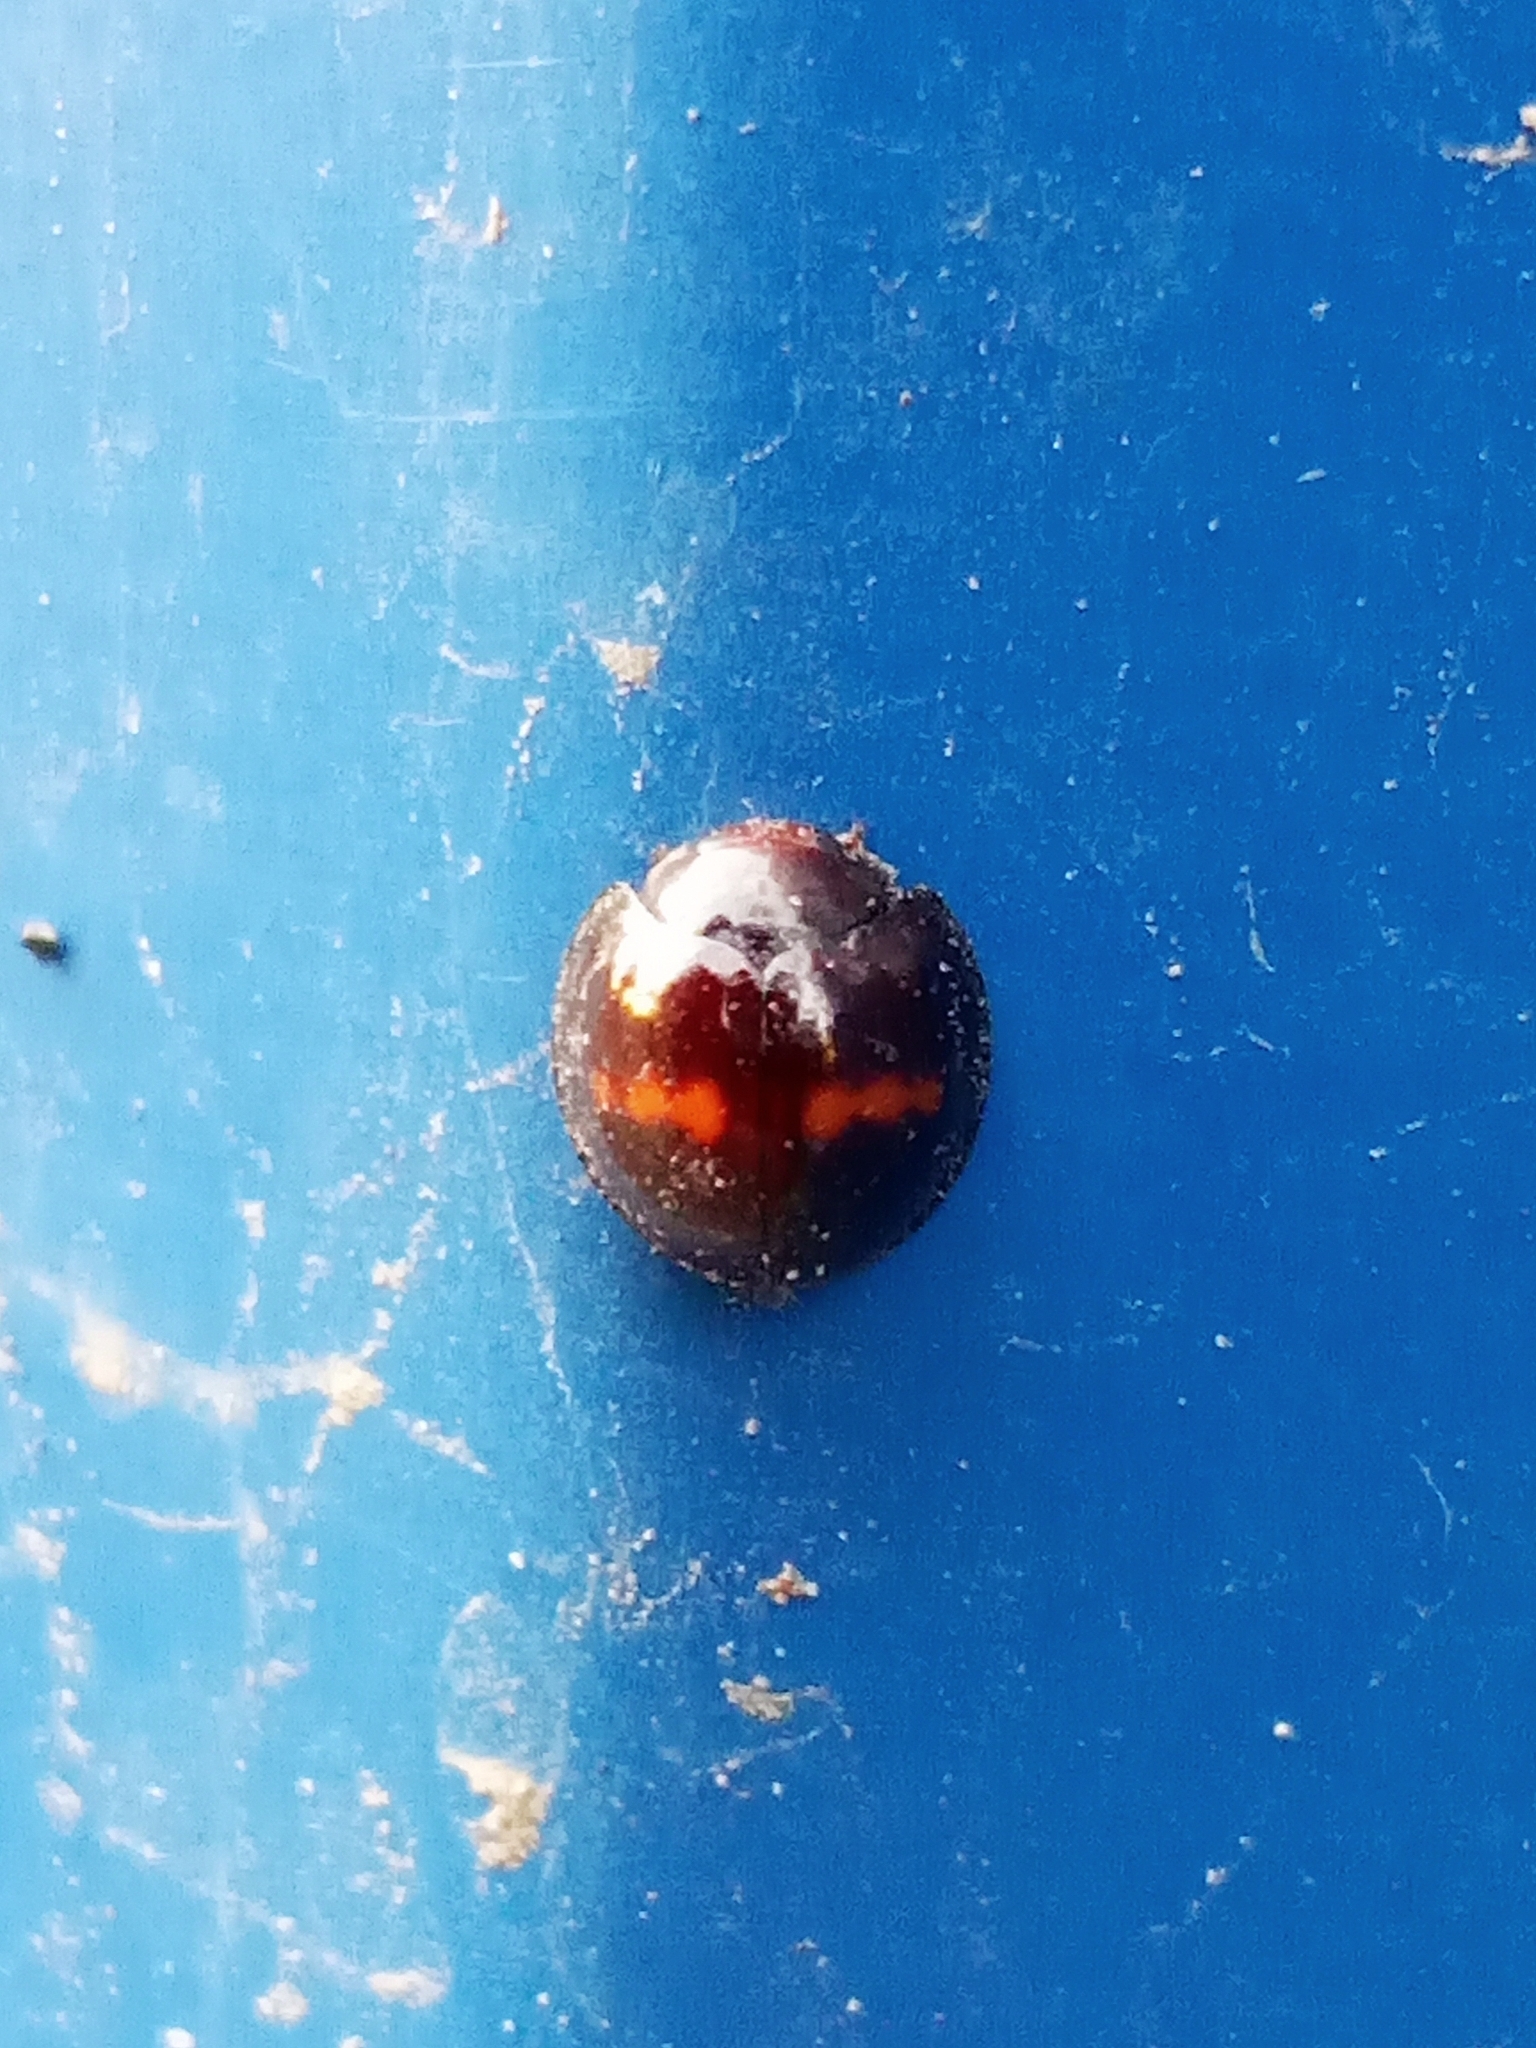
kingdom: Animalia
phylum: Arthropoda
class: Insecta
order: Coleoptera
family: Coccinellidae
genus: Chilocorus
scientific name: Chilocorus bipustulatus
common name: Heather ladybird
